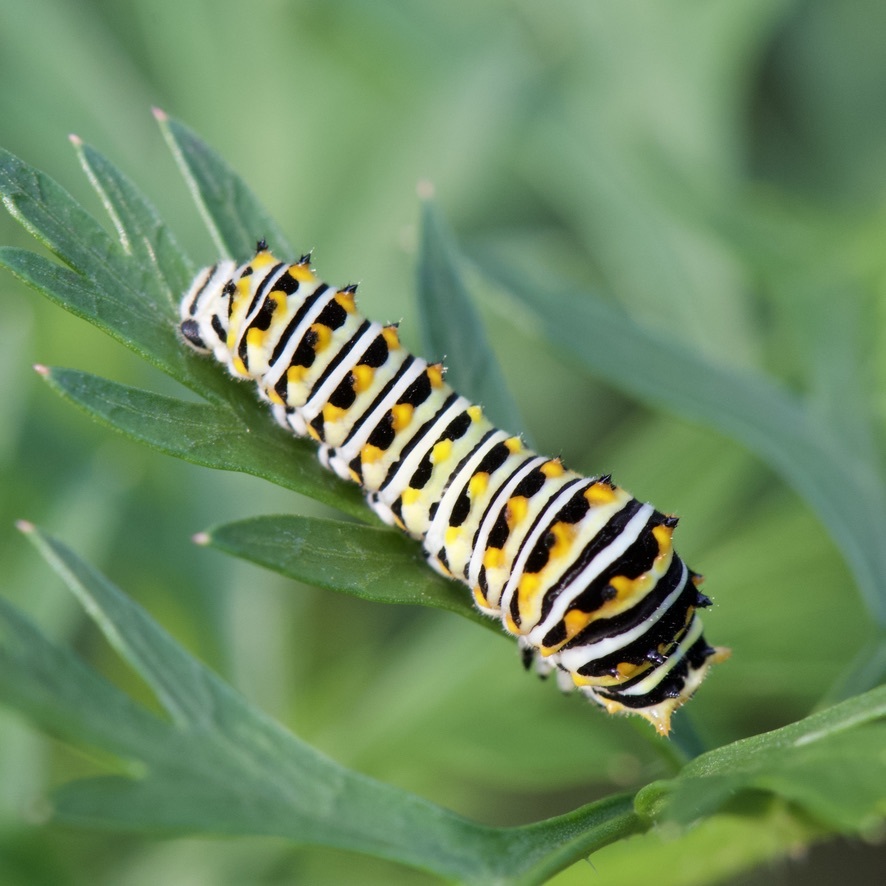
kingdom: Animalia
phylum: Arthropoda
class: Insecta
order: Lepidoptera
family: Papilionidae
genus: Papilio
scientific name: Papilio polyxenes
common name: Black swallowtail
